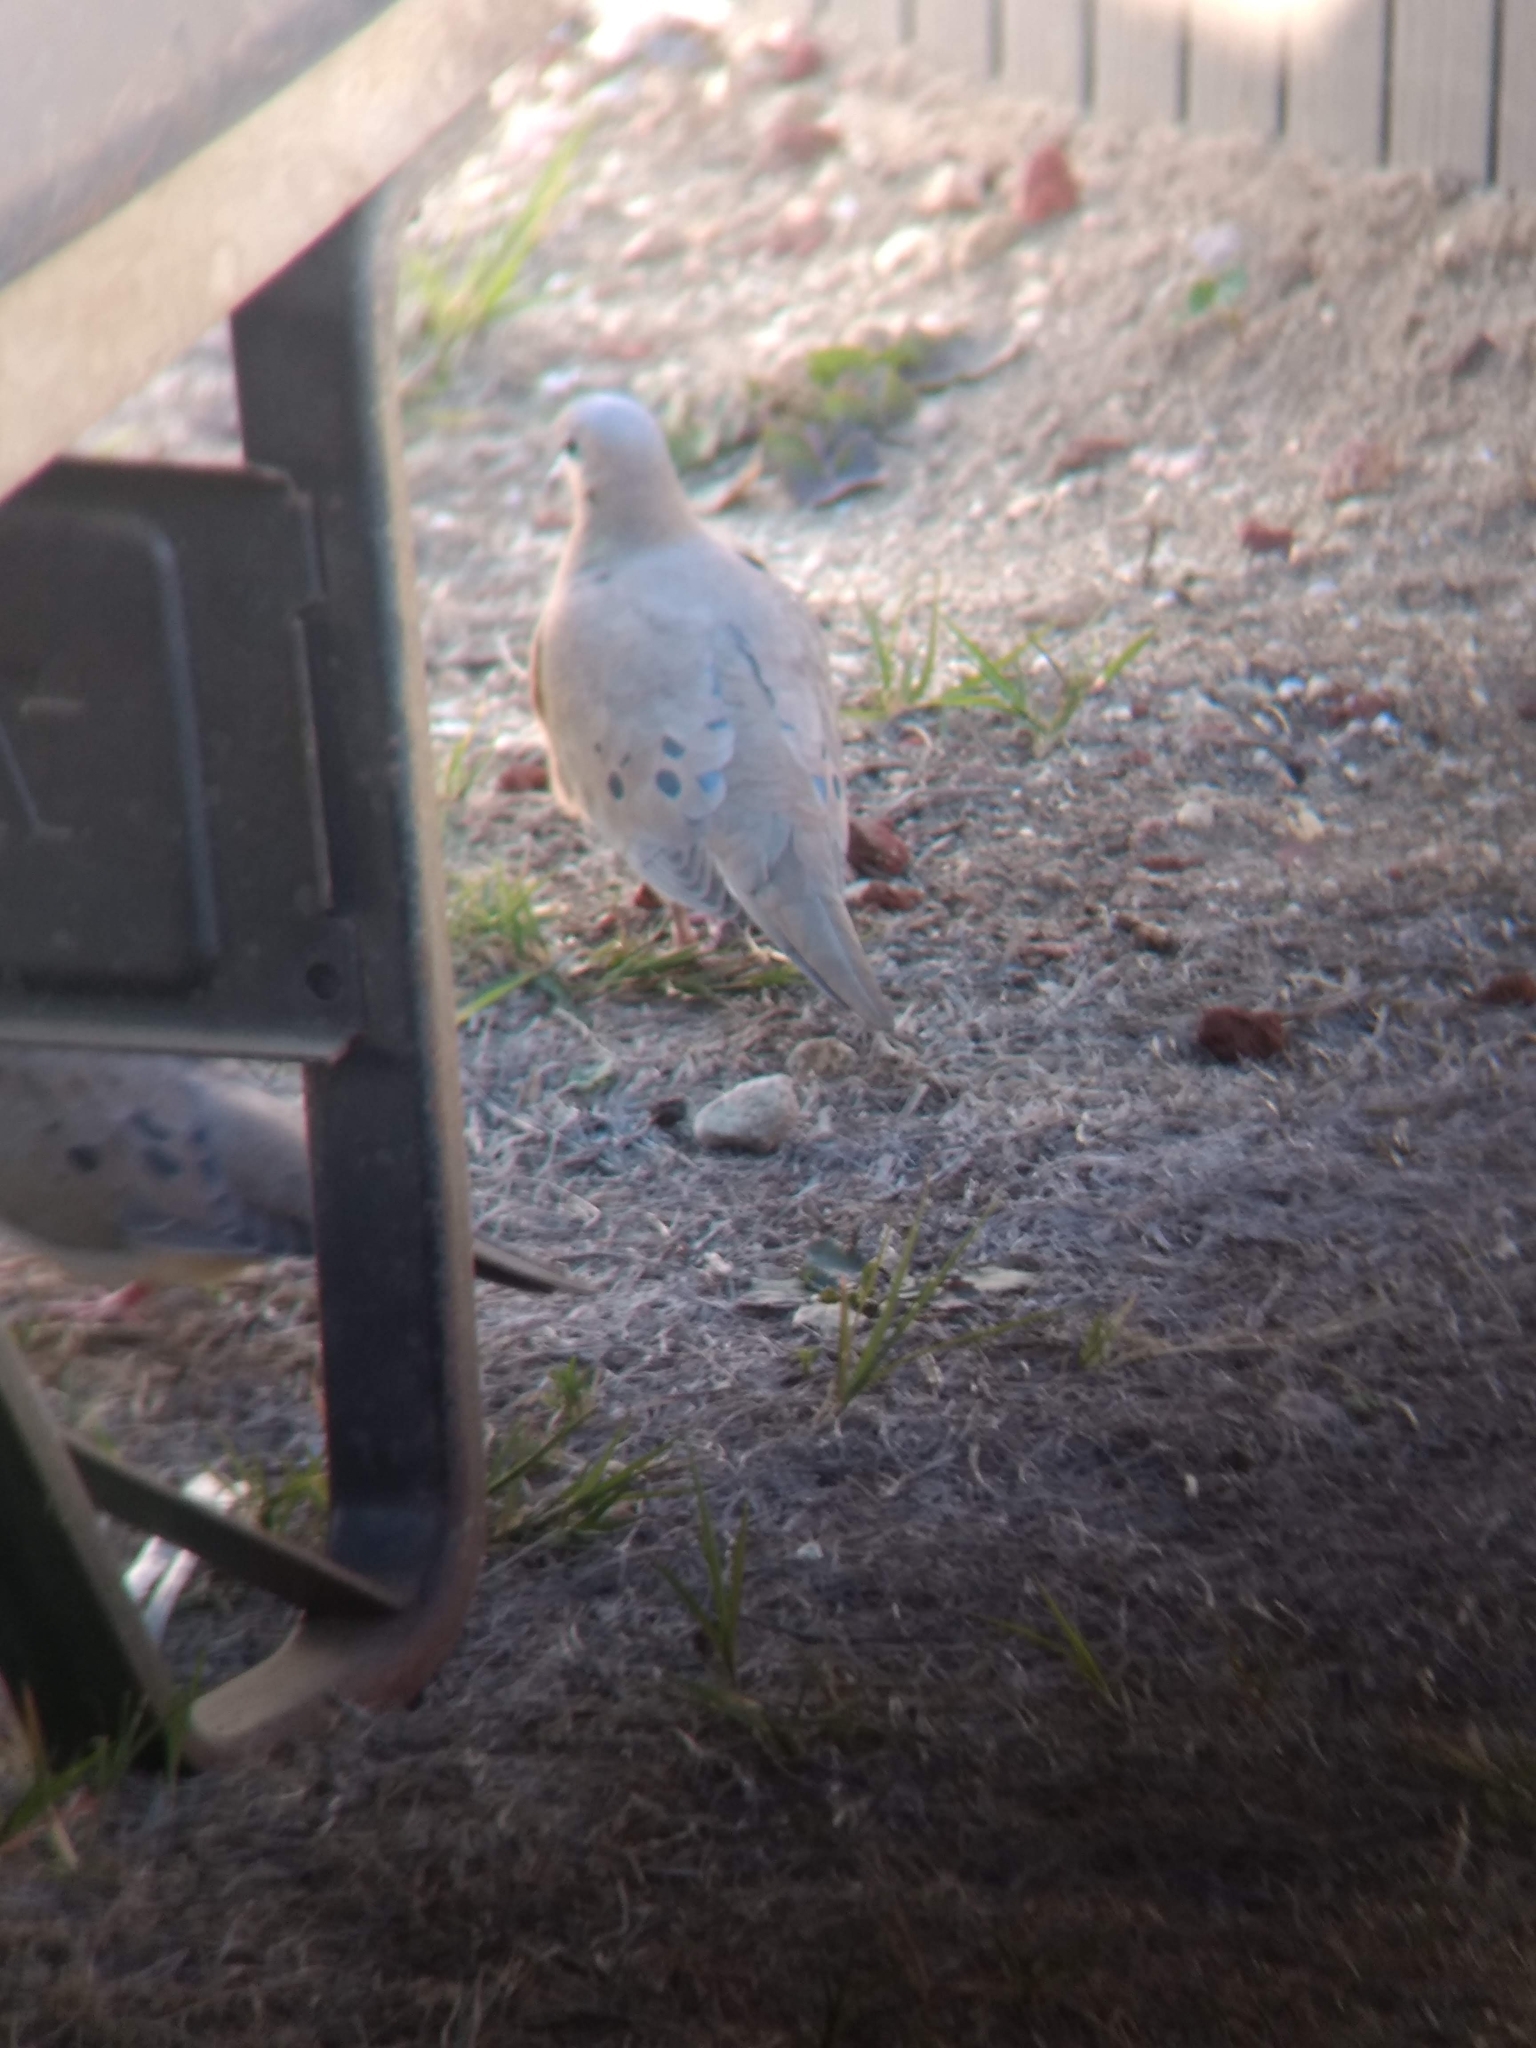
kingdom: Animalia
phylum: Chordata
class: Aves
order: Columbiformes
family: Columbidae
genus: Zenaida
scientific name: Zenaida macroura
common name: Mourning dove
